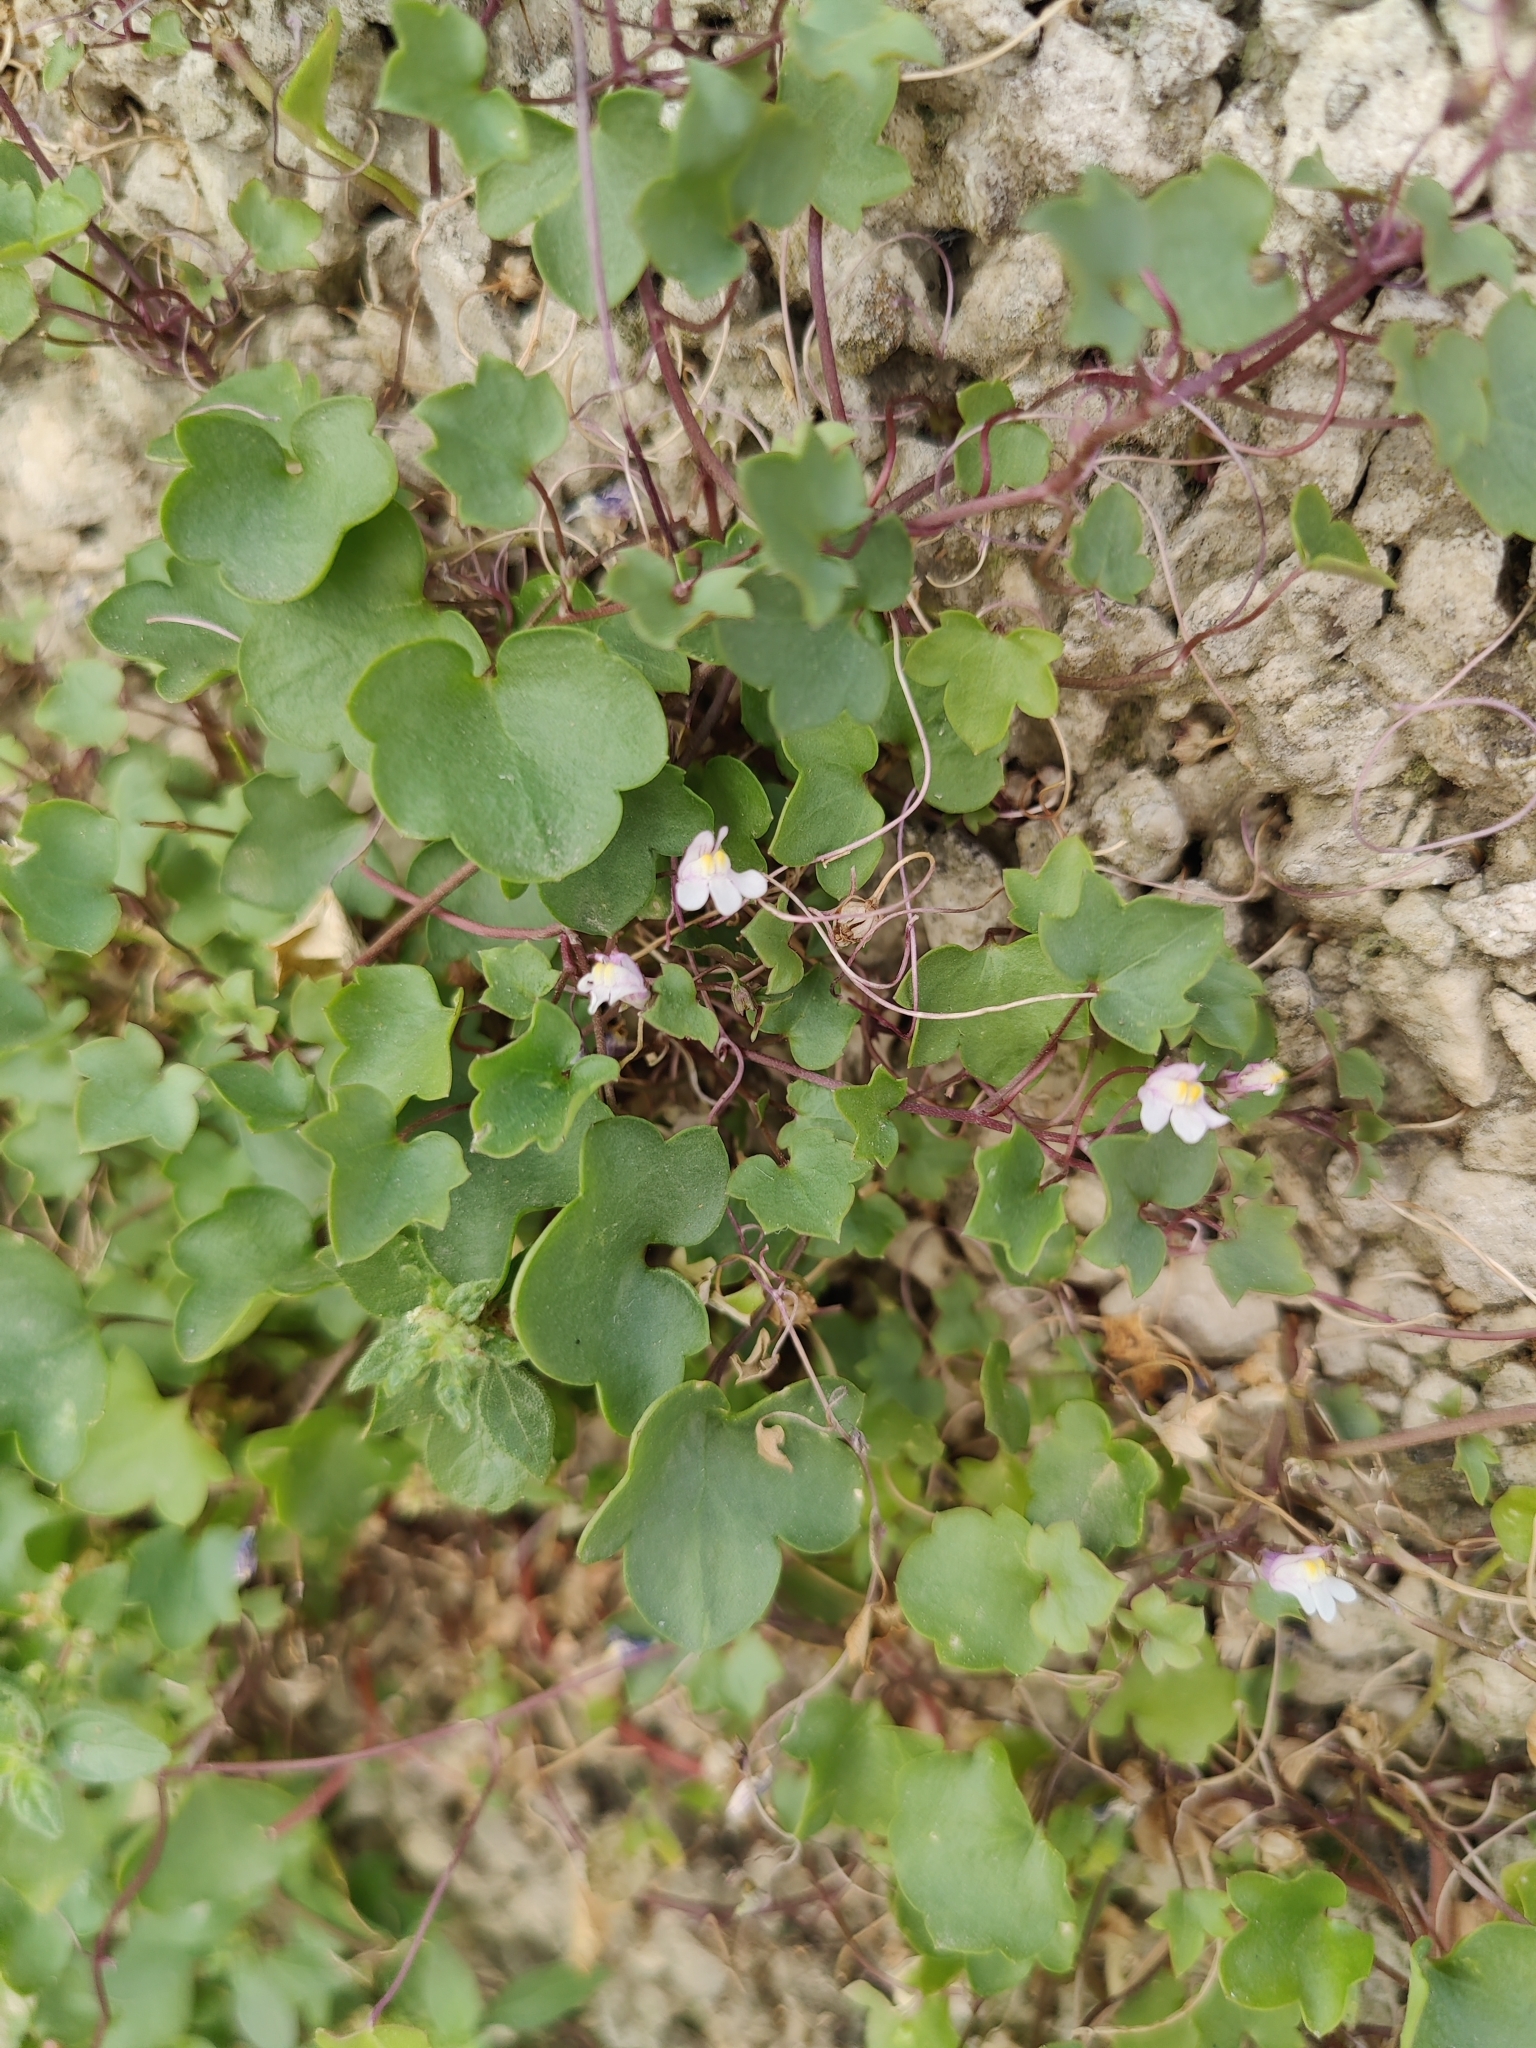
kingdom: Plantae
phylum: Tracheophyta
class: Magnoliopsida
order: Lamiales
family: Plantaginaceae
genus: Cymbalaria
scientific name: Cymbalaria muralis
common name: Ivy-leaved toadflax
